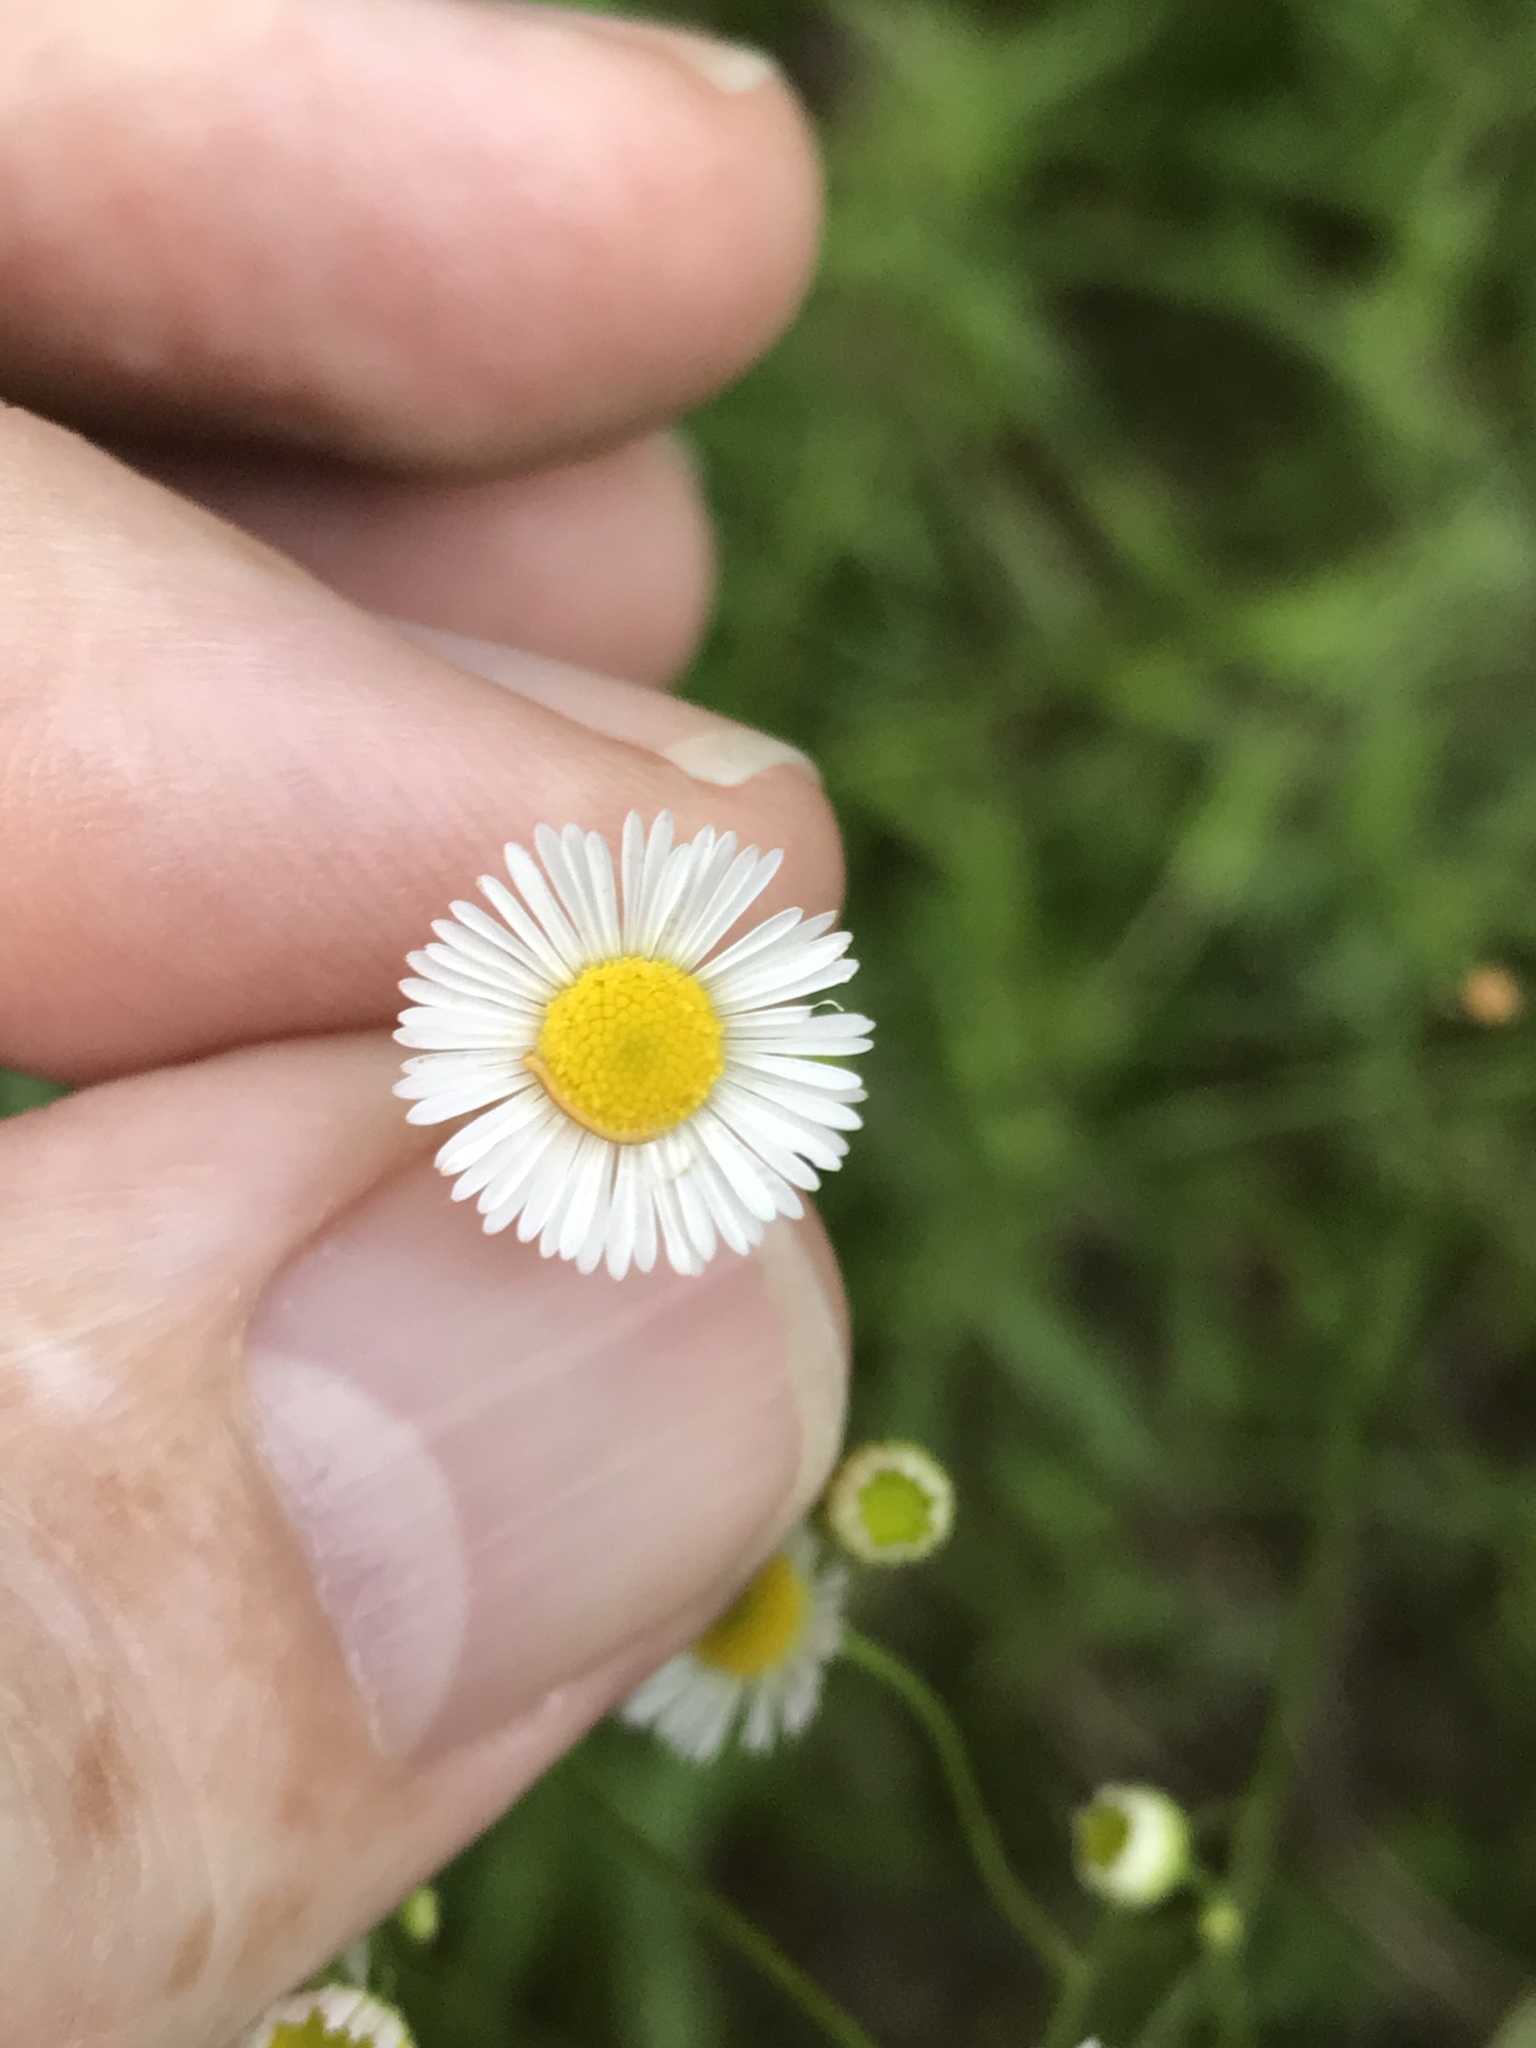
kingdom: Plantae
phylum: Tracheophyta
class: Magnoliopsida
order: Asterales
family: Asteraceae
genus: Erigeron
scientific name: Erigeron strigosus
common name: Common eastern fleabane
